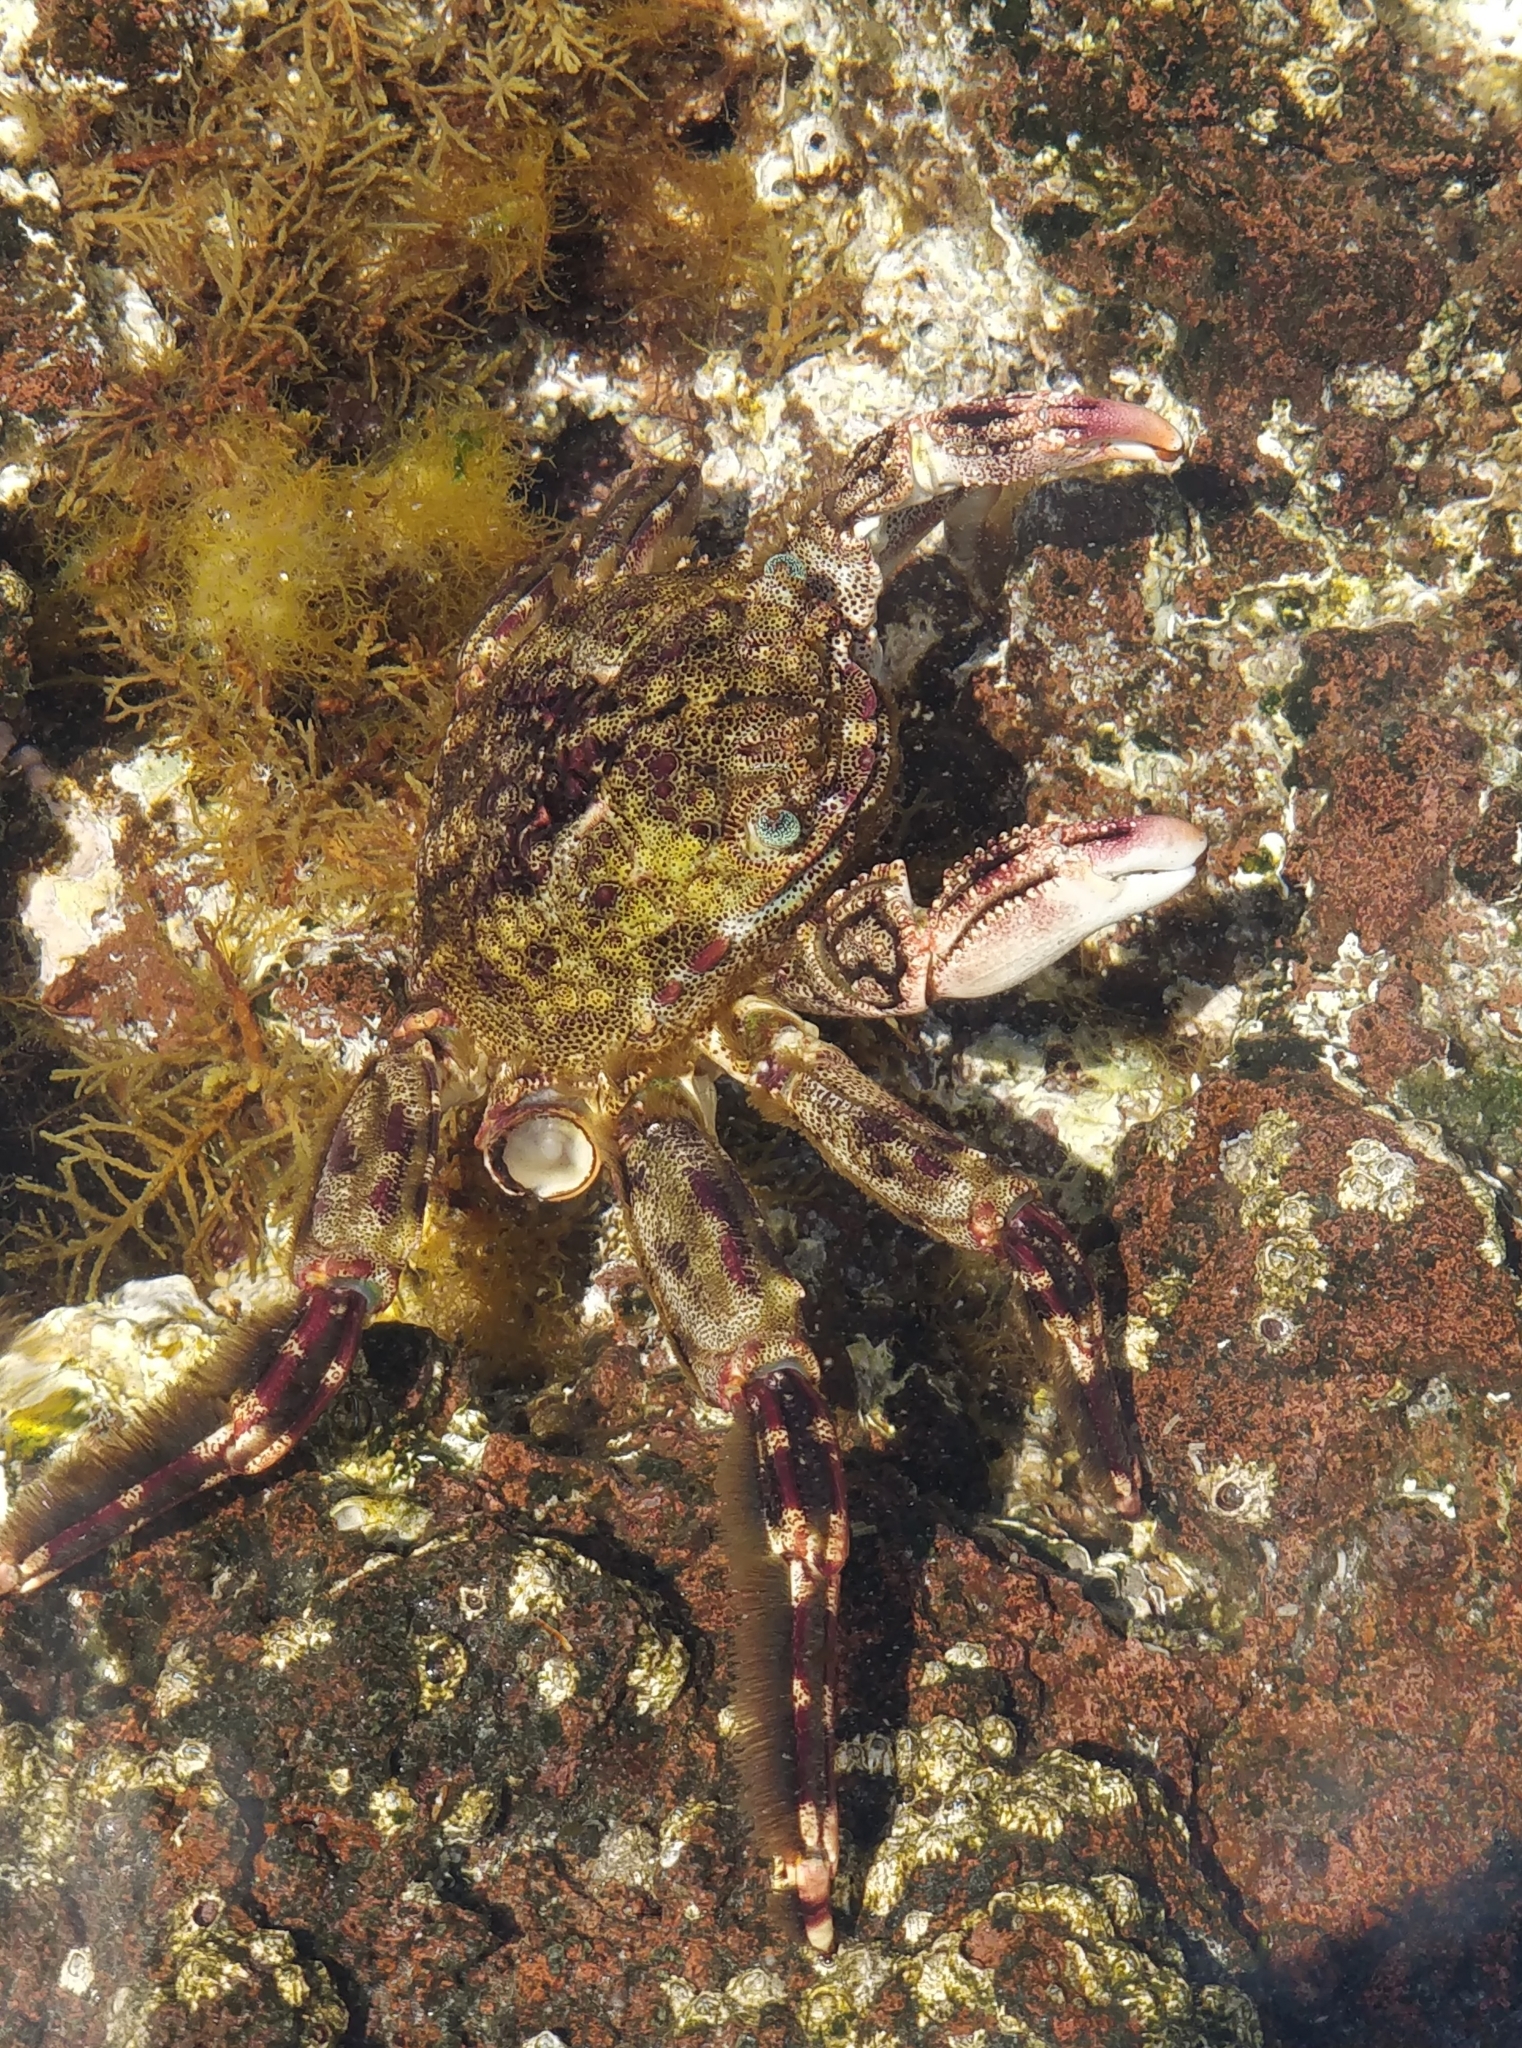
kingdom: Animalia
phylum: Arthropoda
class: Malacostraca
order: Decapoda
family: Plagusiidae
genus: Plagusia
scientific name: Plagusia depressa
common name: Flattened crab
